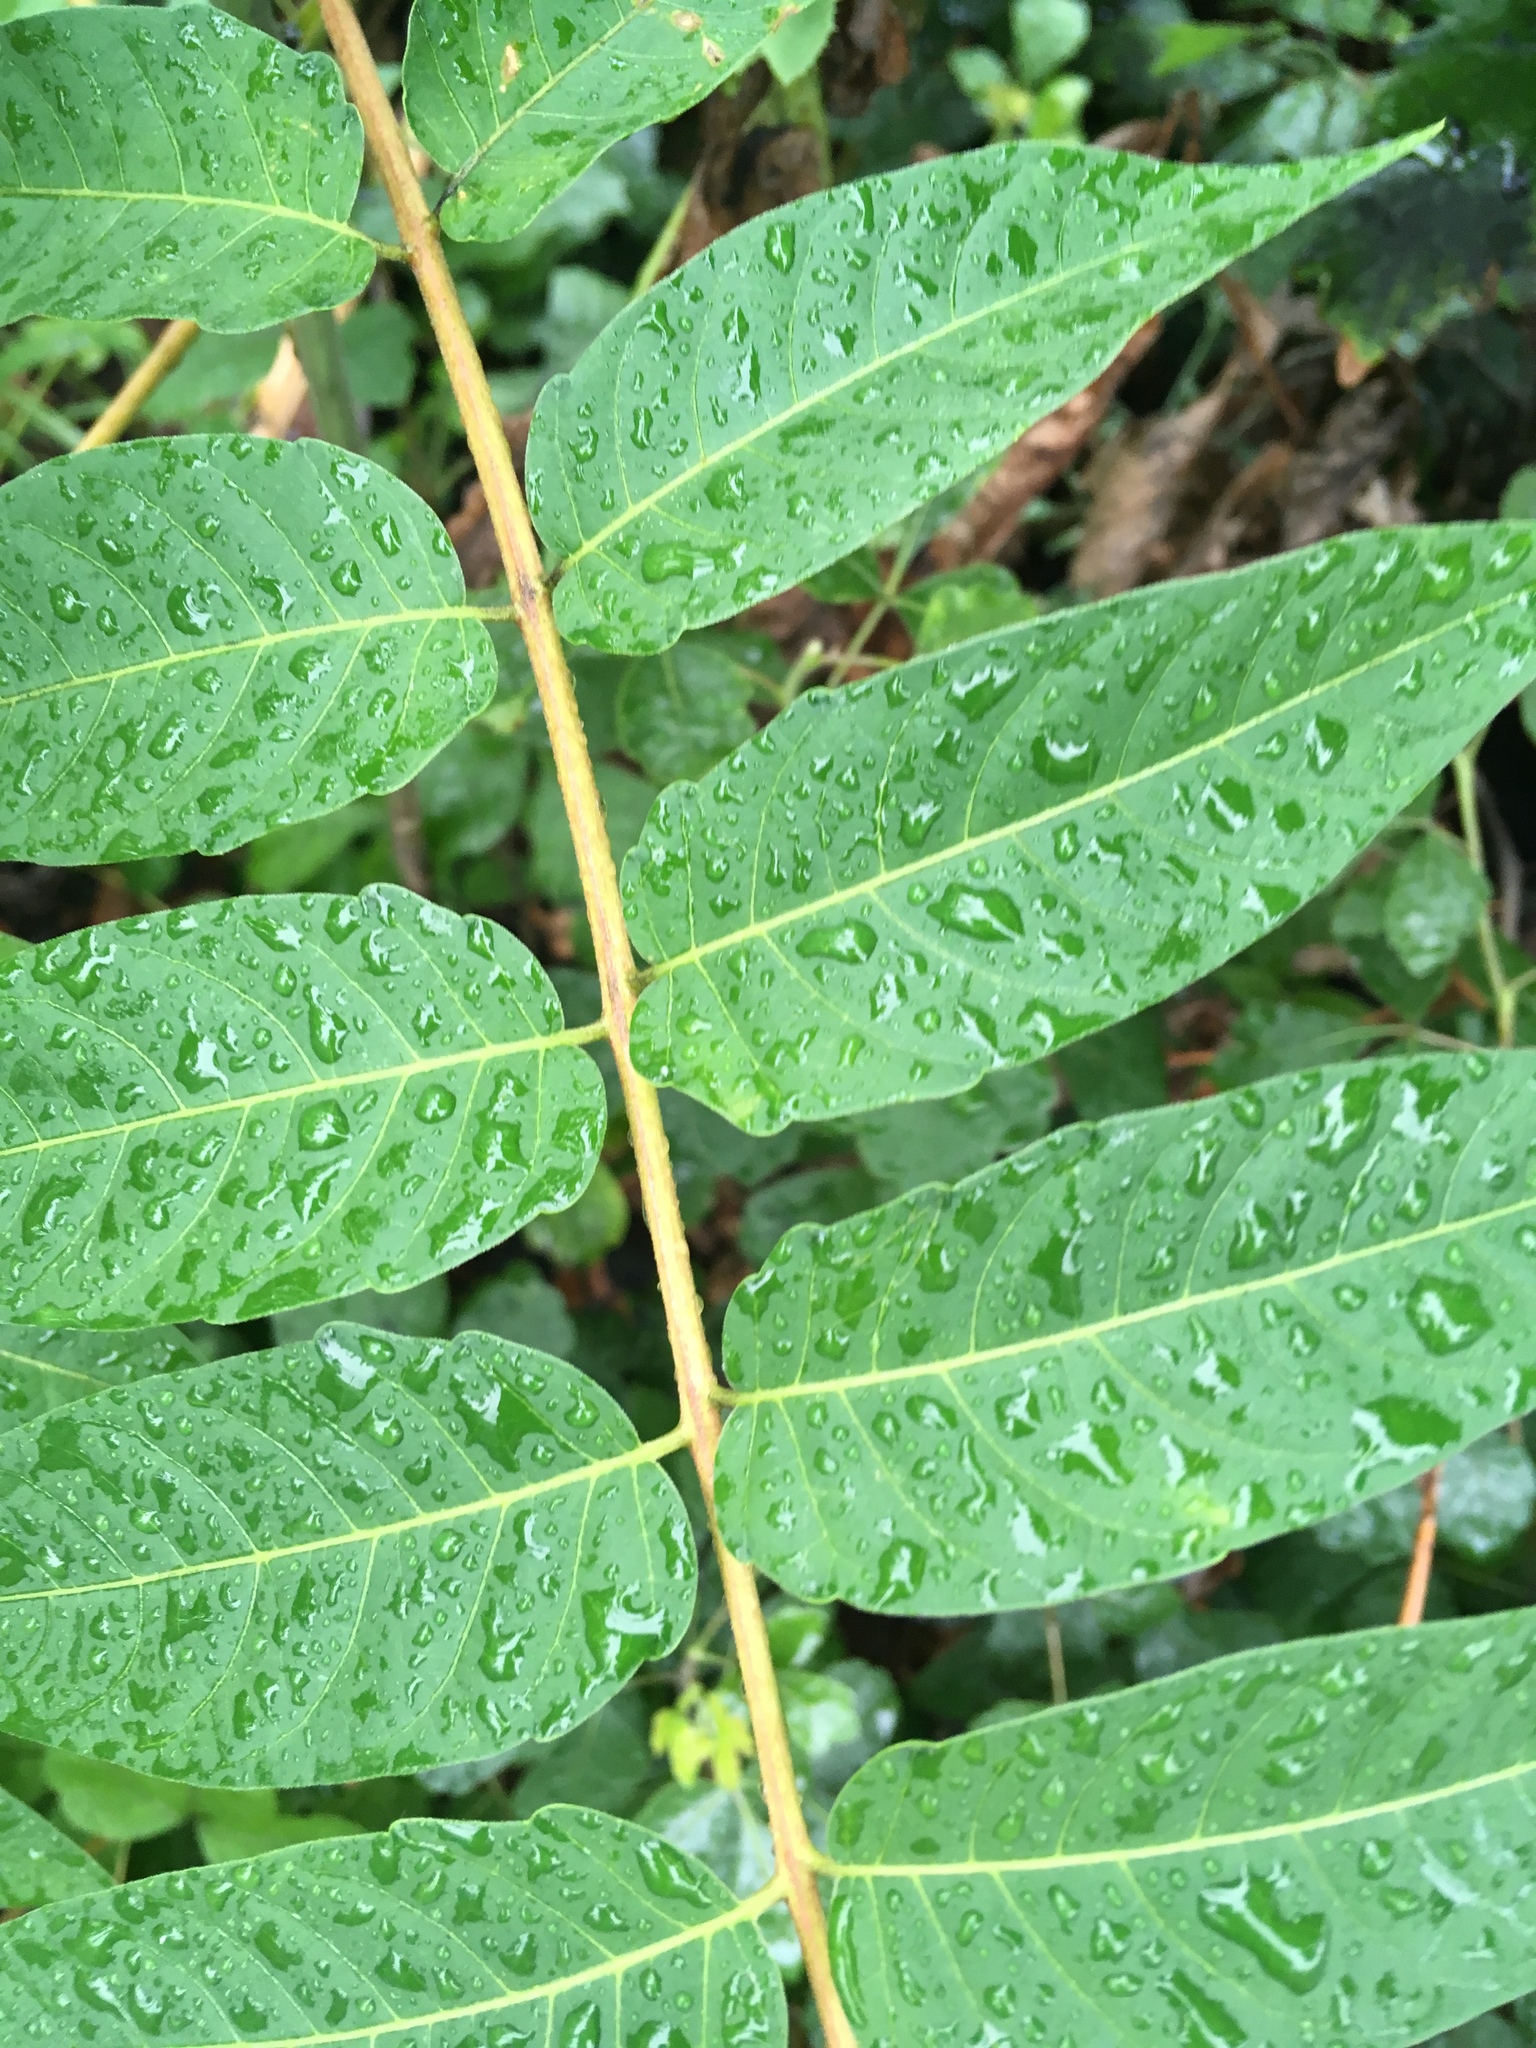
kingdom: Plantae
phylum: Tracheophyta
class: Magnoliopsida
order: Sapindales
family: Simaroubaceae
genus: Ailanthus
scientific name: Ailanthus altissima
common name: Tree-of-heaven
